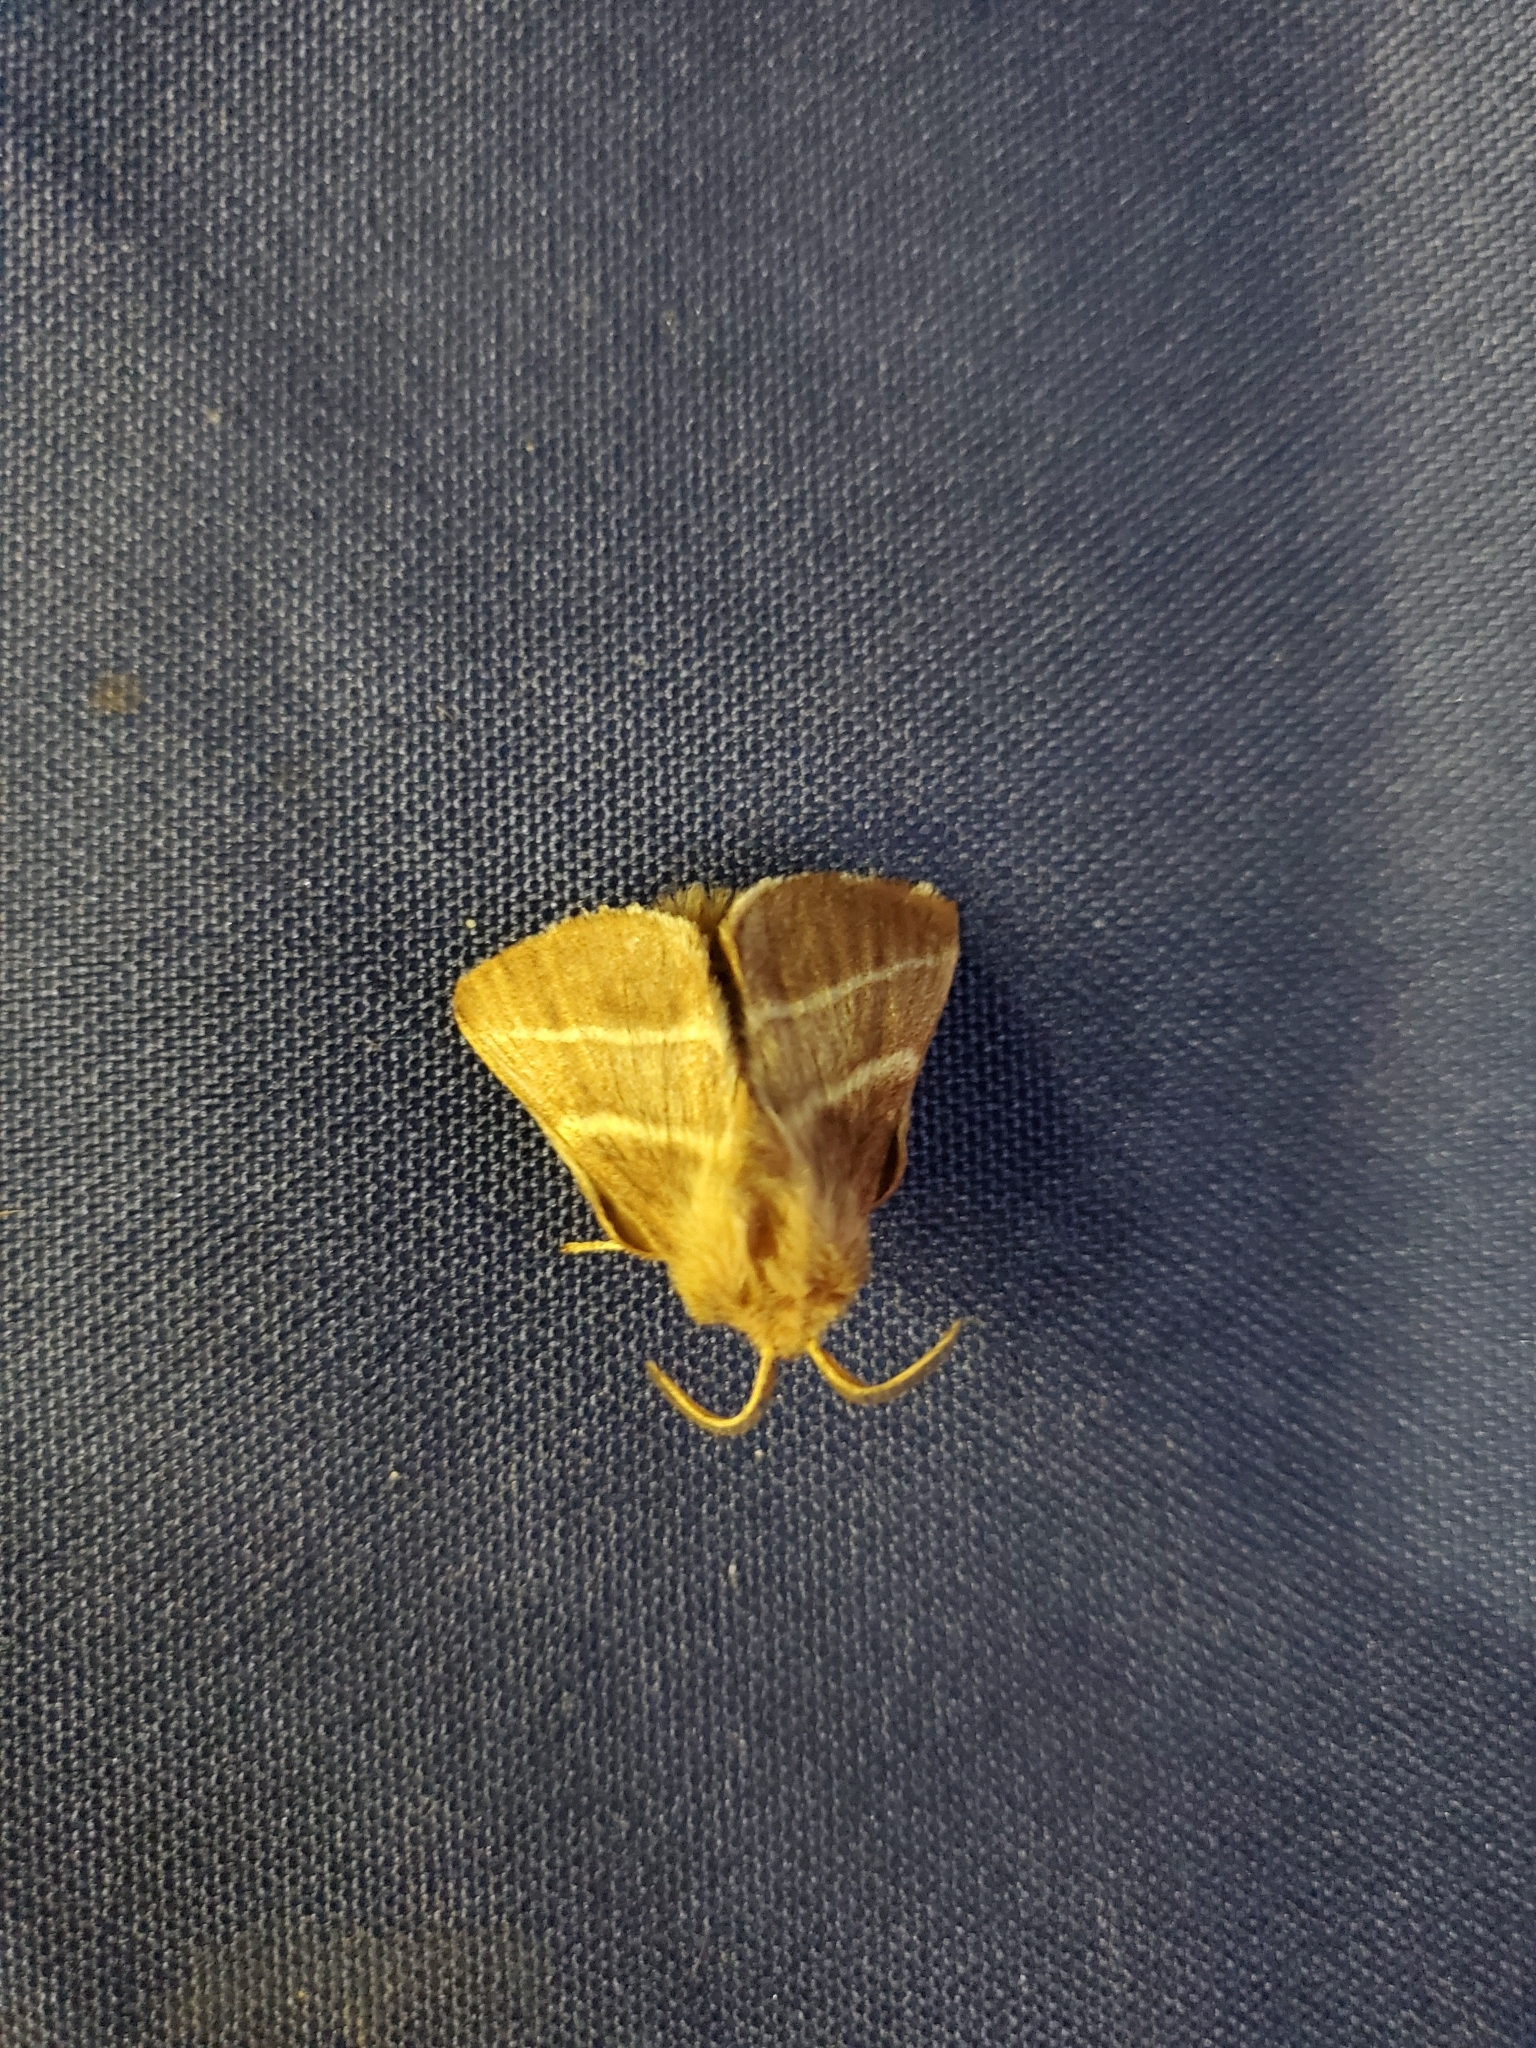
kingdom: Animalia
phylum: Arthropoda
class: Insecta
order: Lepidoptera
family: Lasiocampidae
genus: Malacosoma
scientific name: Malacosoma americana
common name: Eastern tent caterpillar moth
